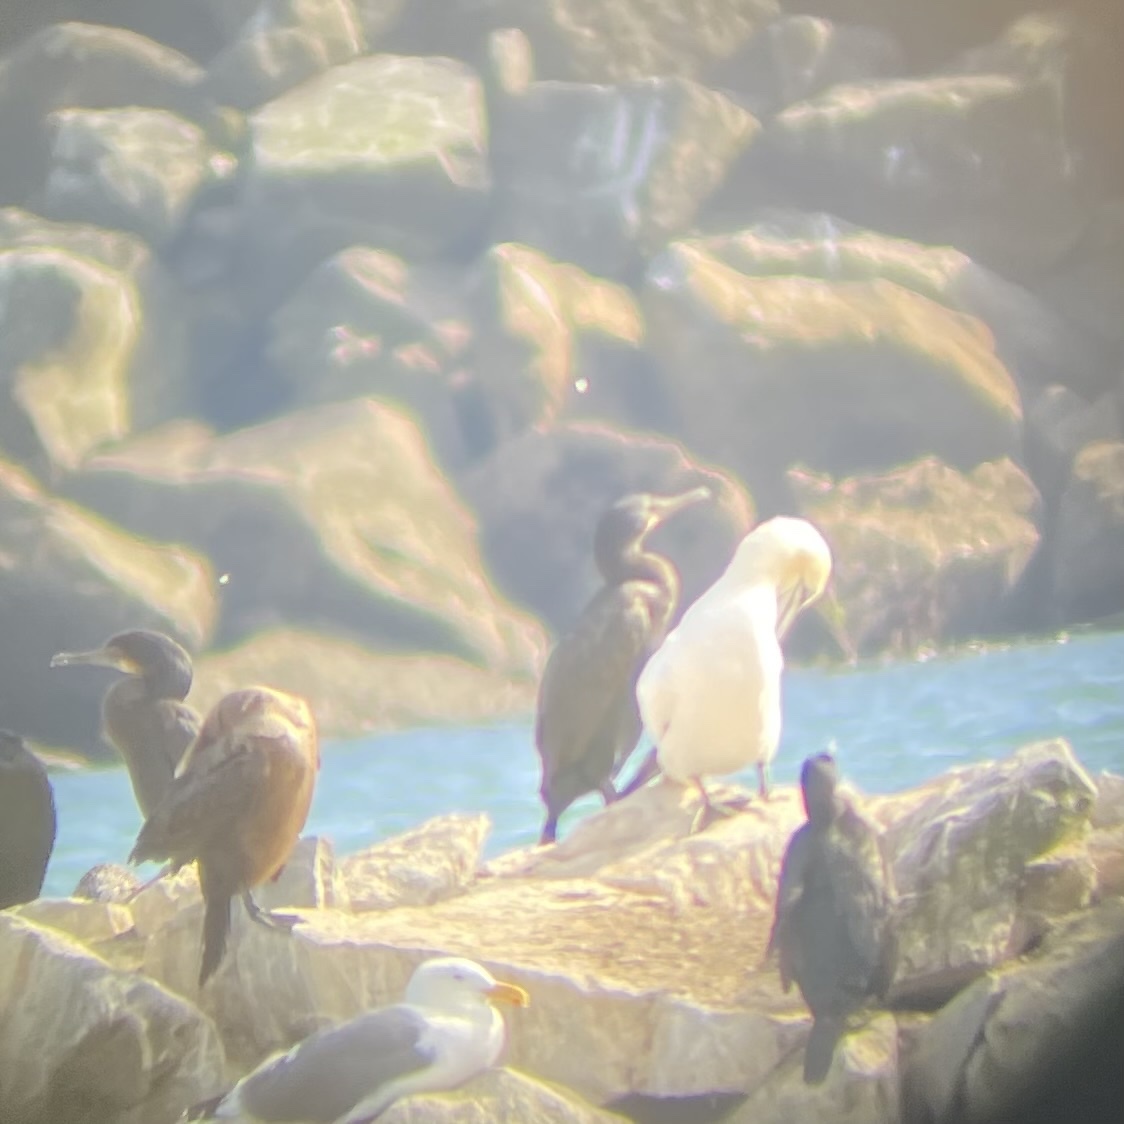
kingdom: Animalia
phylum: Chordata
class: Aves
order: Suliformes
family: Sulidae
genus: Morus
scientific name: Morus bassanus
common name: Northern gannet
